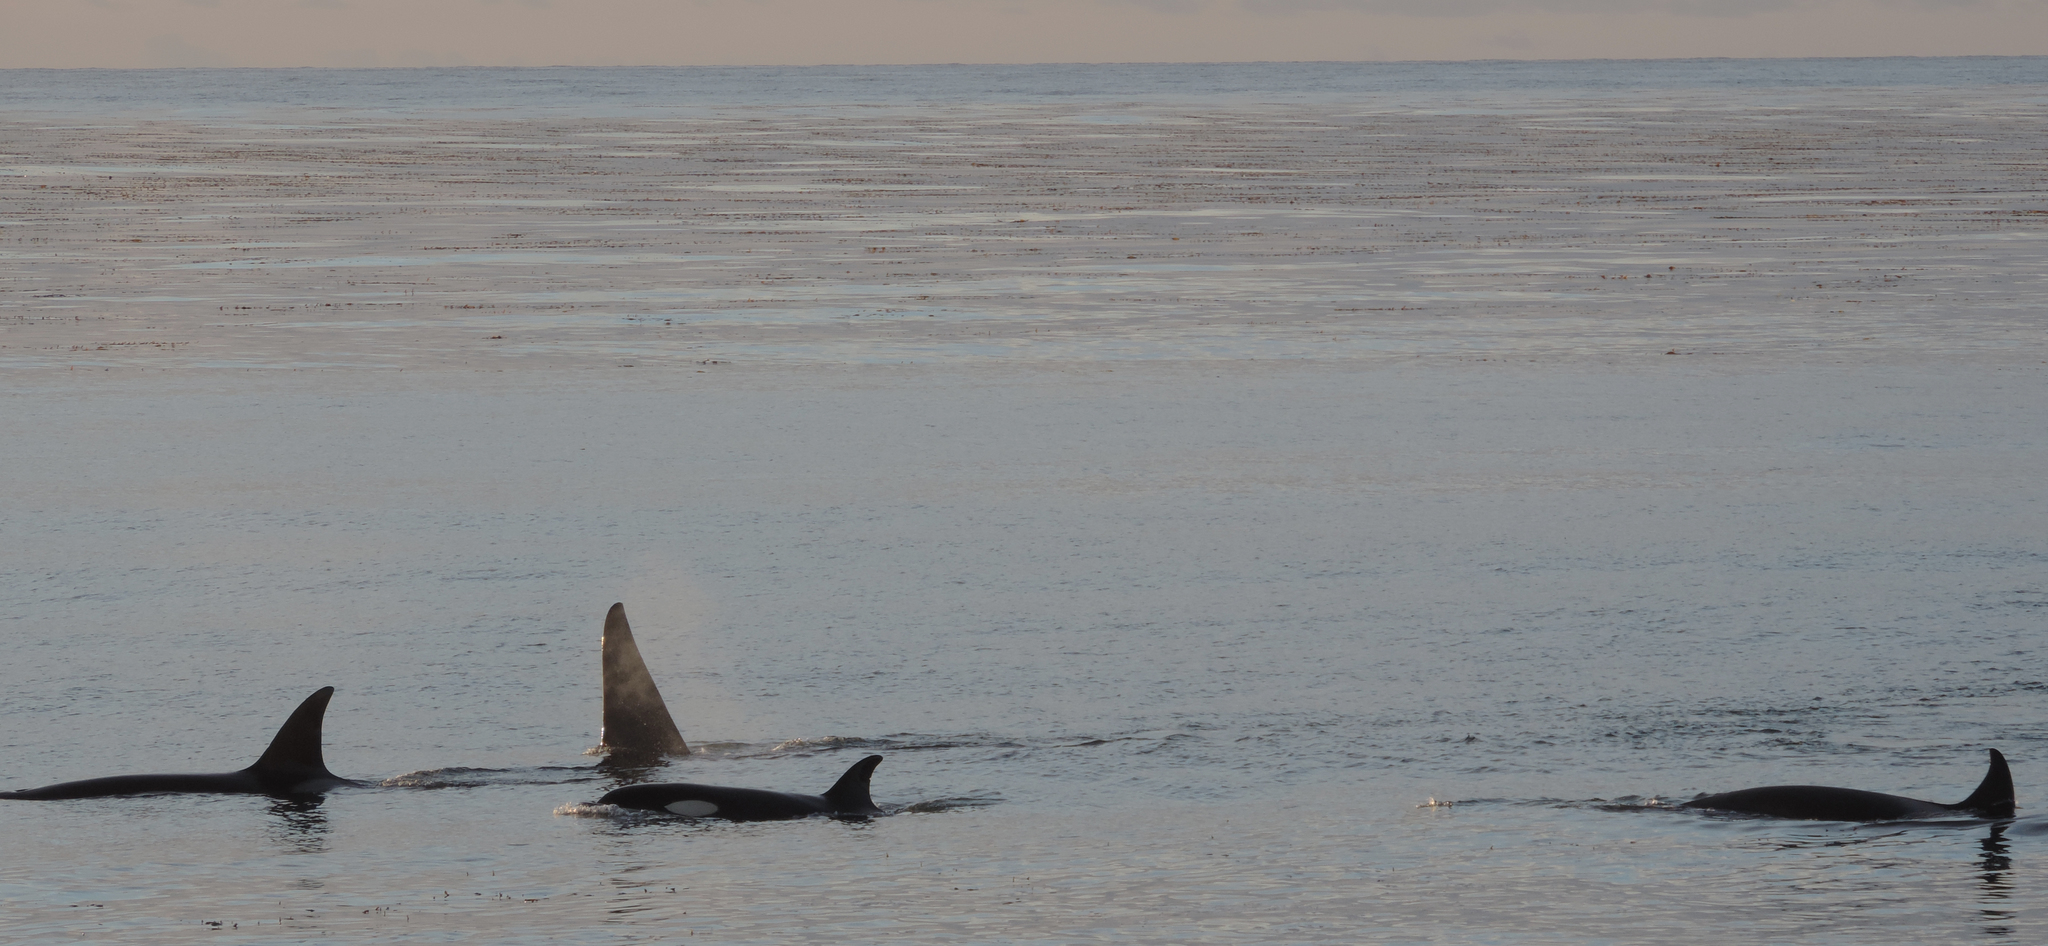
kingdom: Animalia
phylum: Chordata
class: Mammalia
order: Cetacea
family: Delphinidae
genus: Orcinus
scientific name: Orcinus orca
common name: Killer whale
